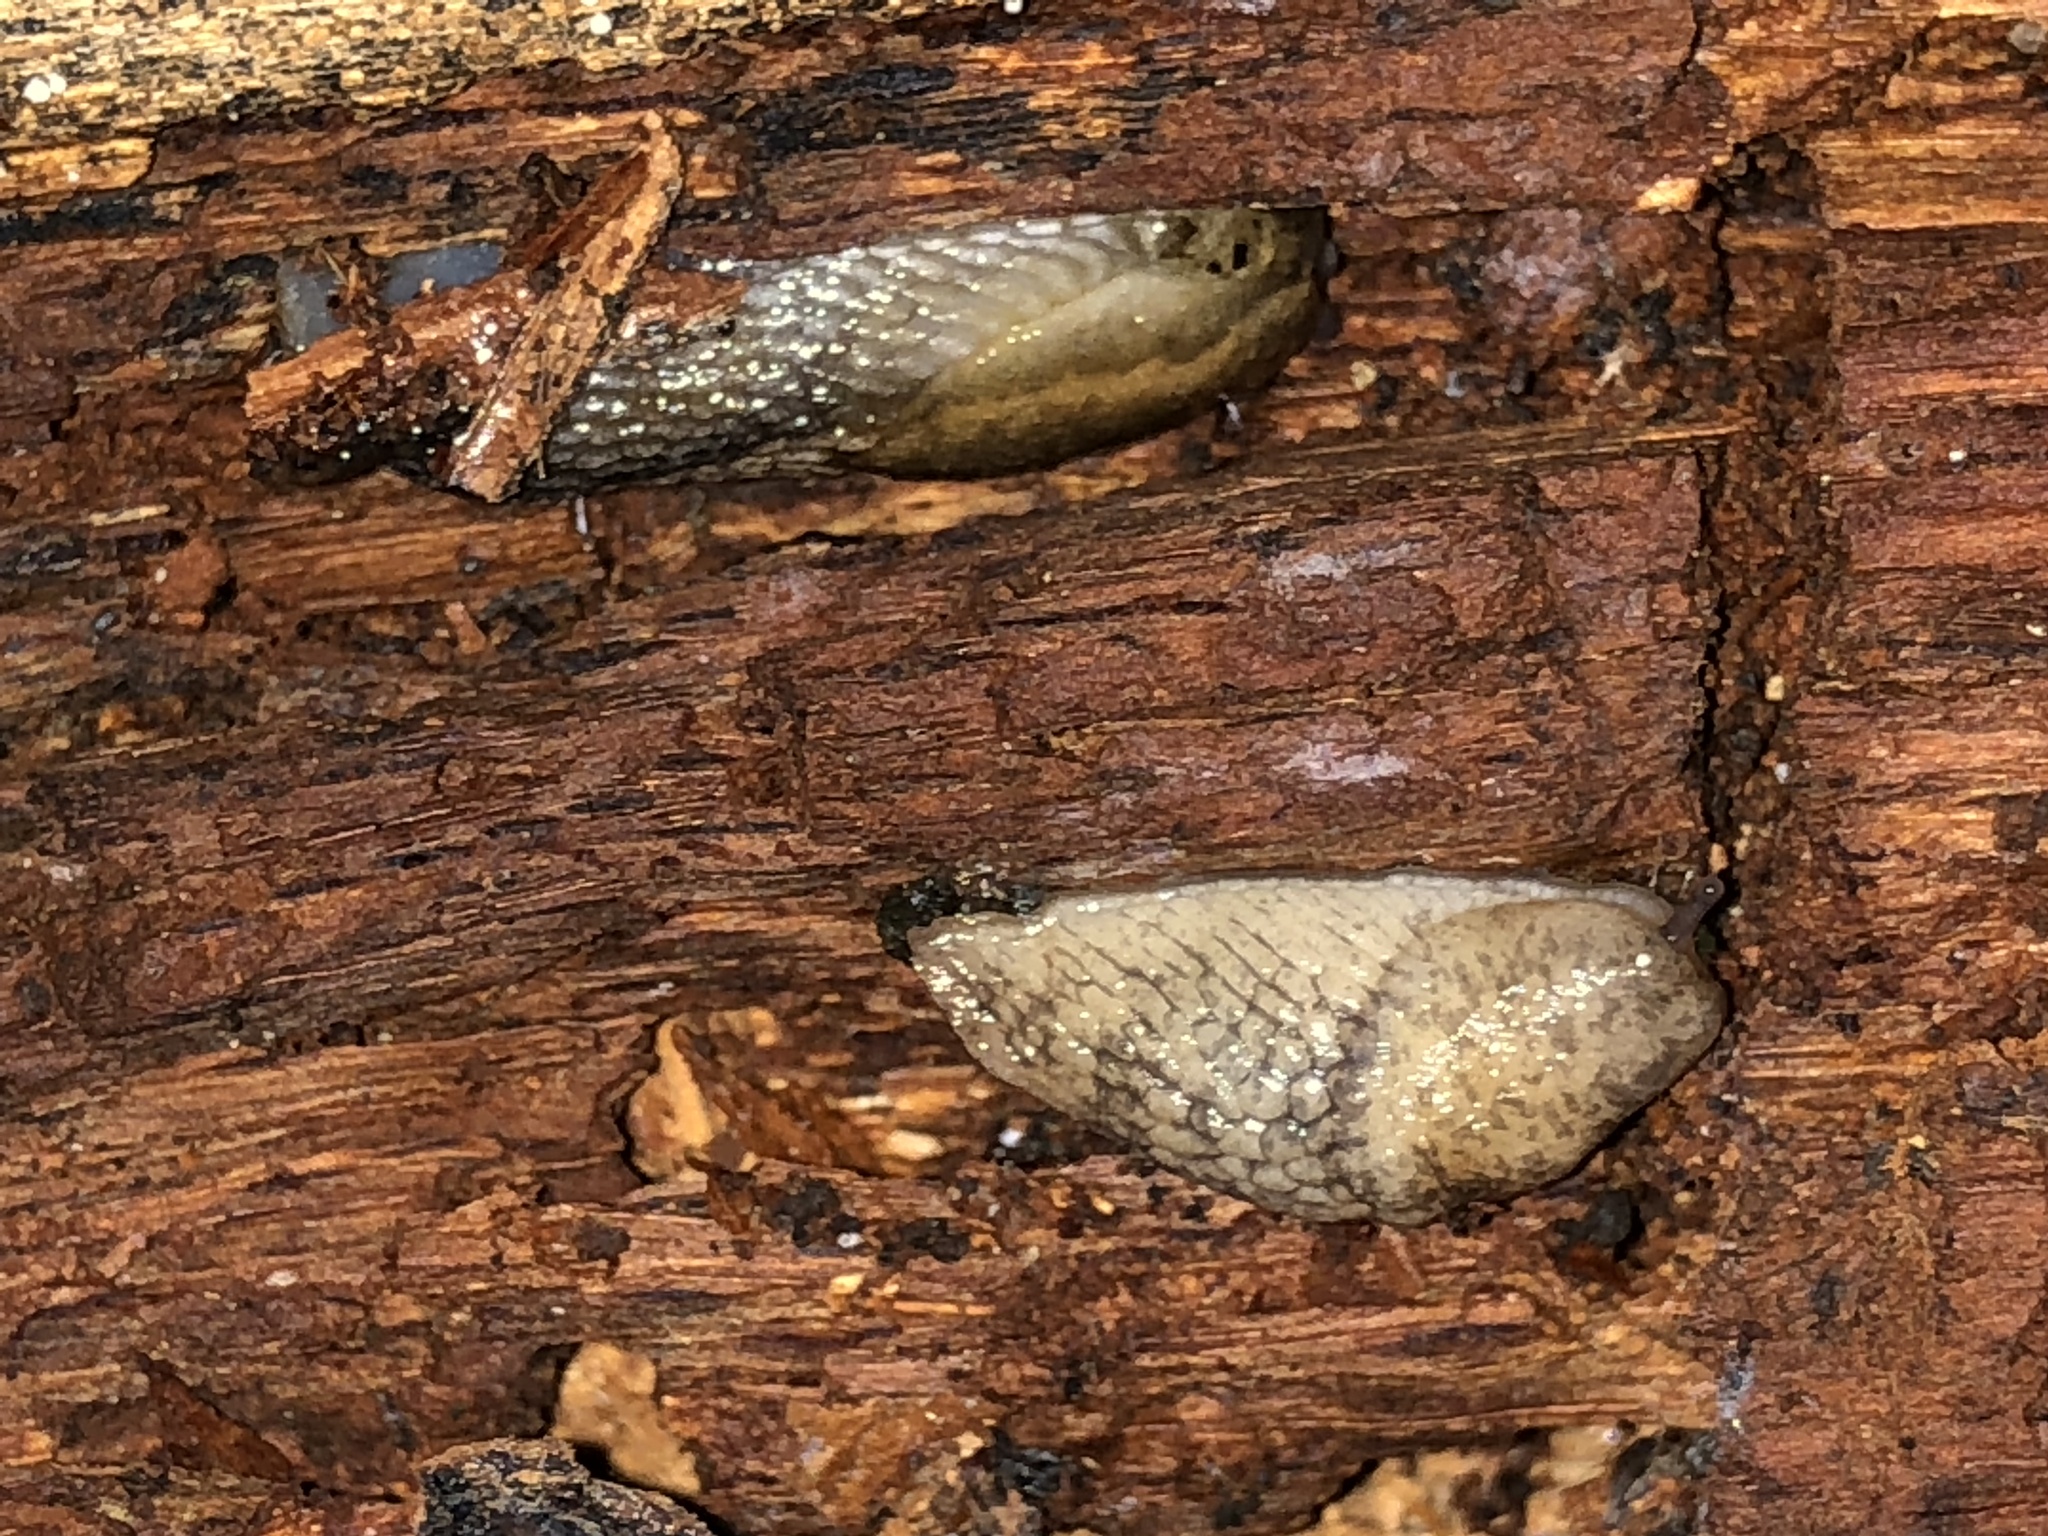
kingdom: Animalia
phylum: Mollusca
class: Gastropoda
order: Stylommatophora
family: Agriolimacidae
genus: Deroceras
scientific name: Deroceras reticulatum
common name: Gray field slug
